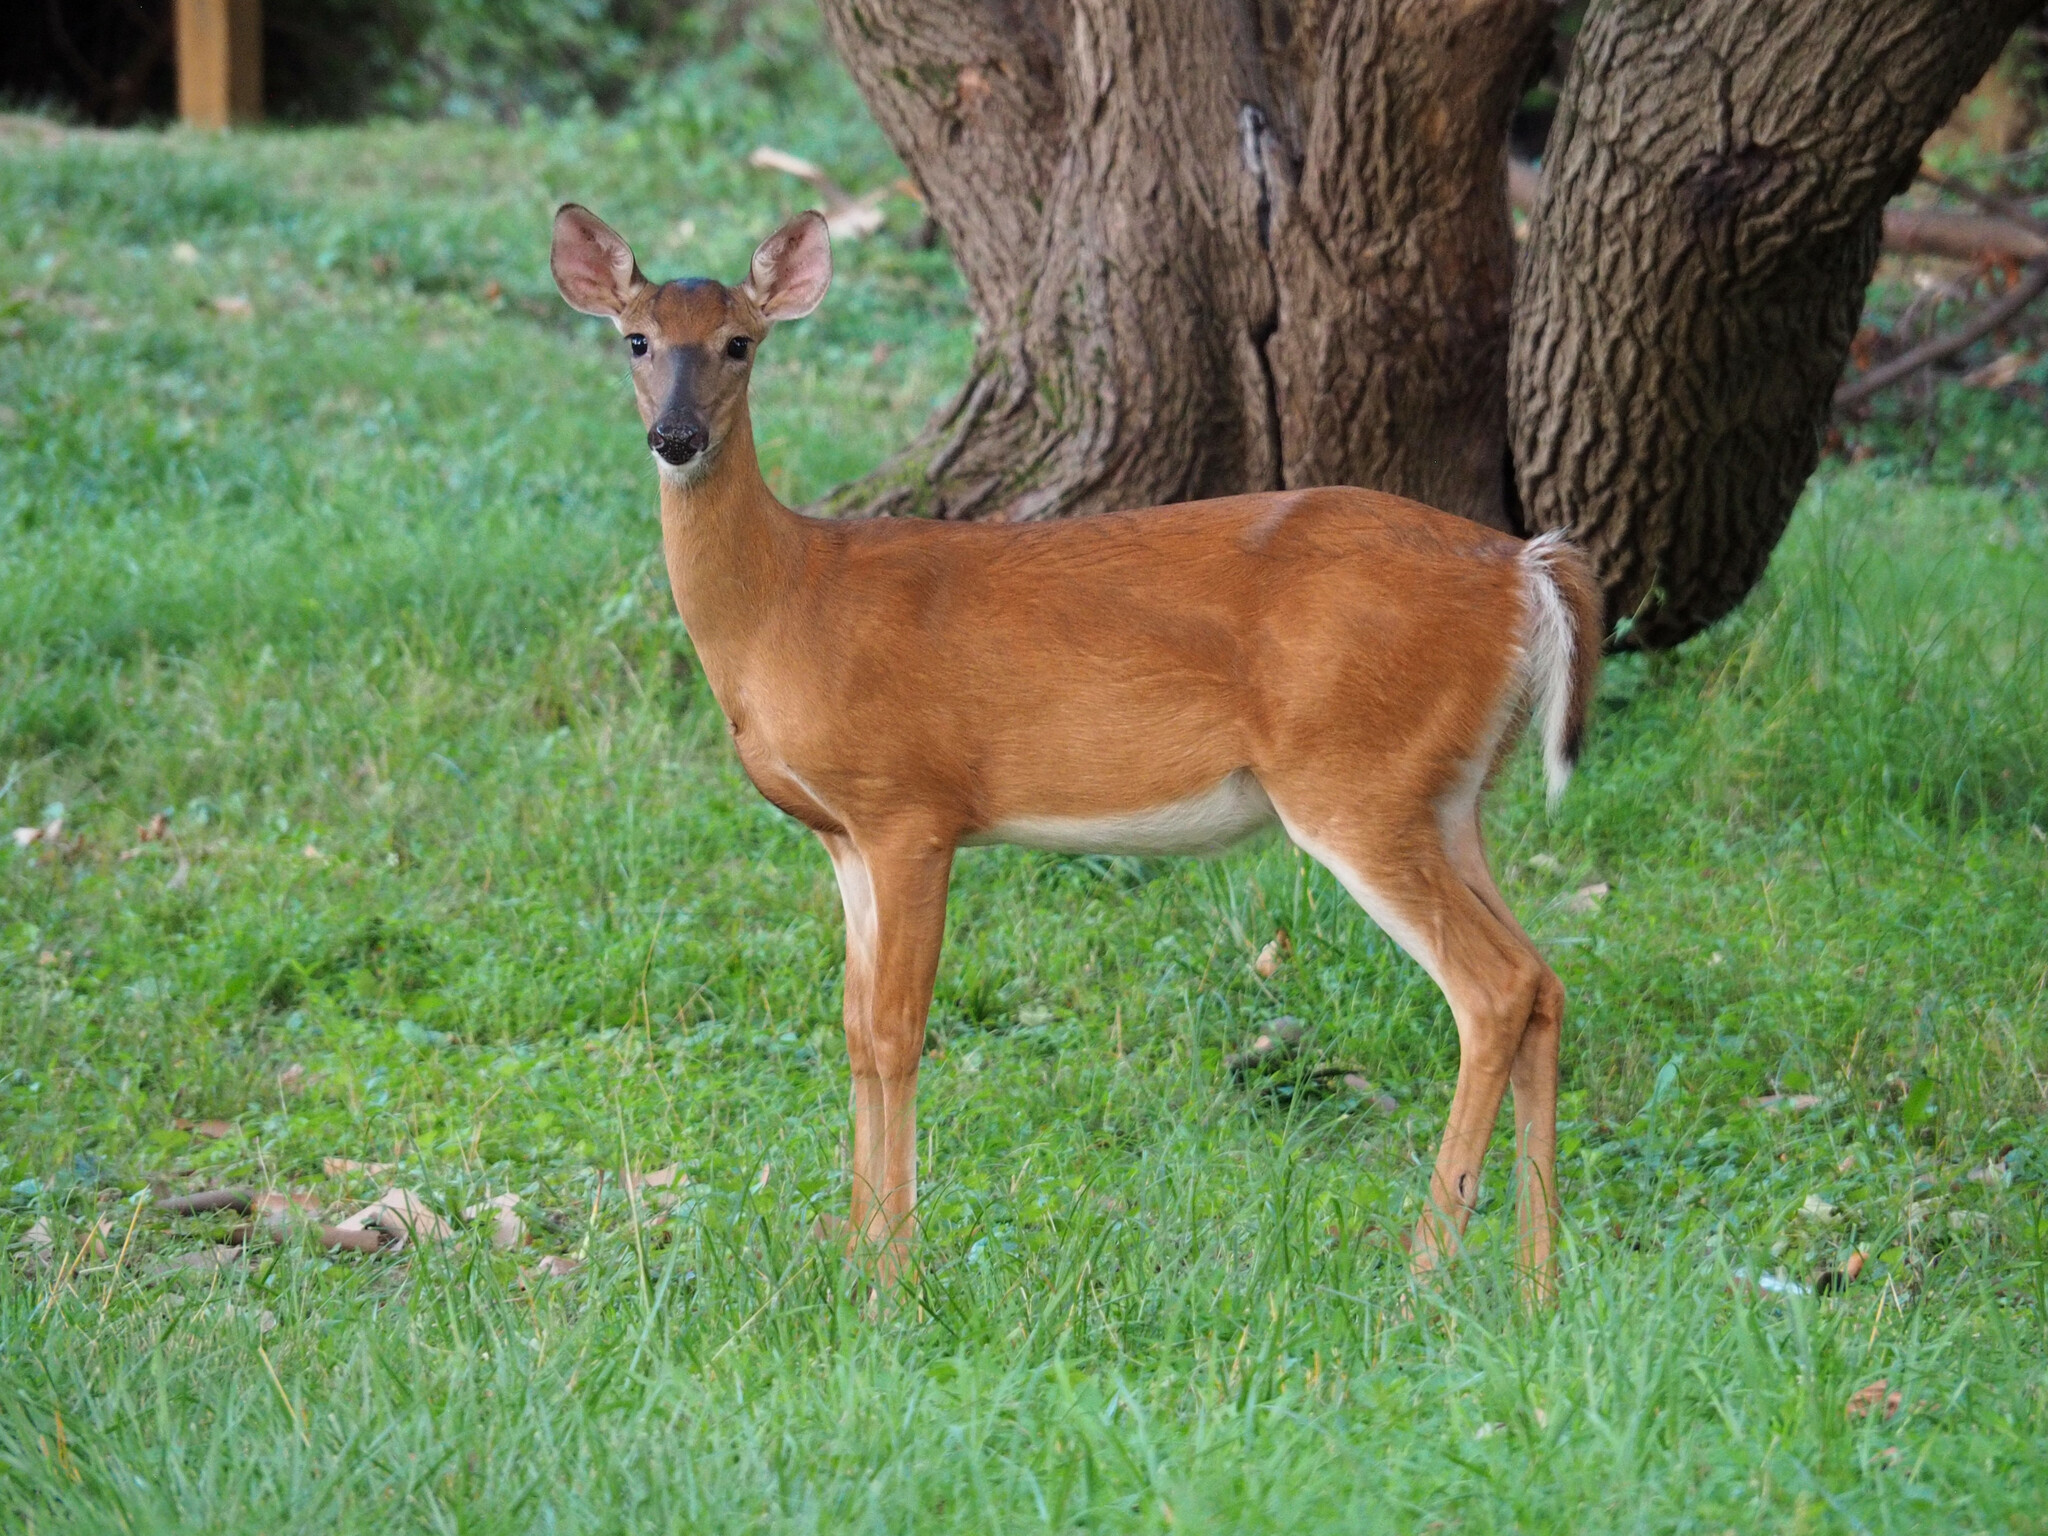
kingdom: Animalia
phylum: Chordata
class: Mammalia
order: Artiodactyla
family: Cervidae
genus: Odocoileus
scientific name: Odocoileus virginianus
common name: White-tailed deer
